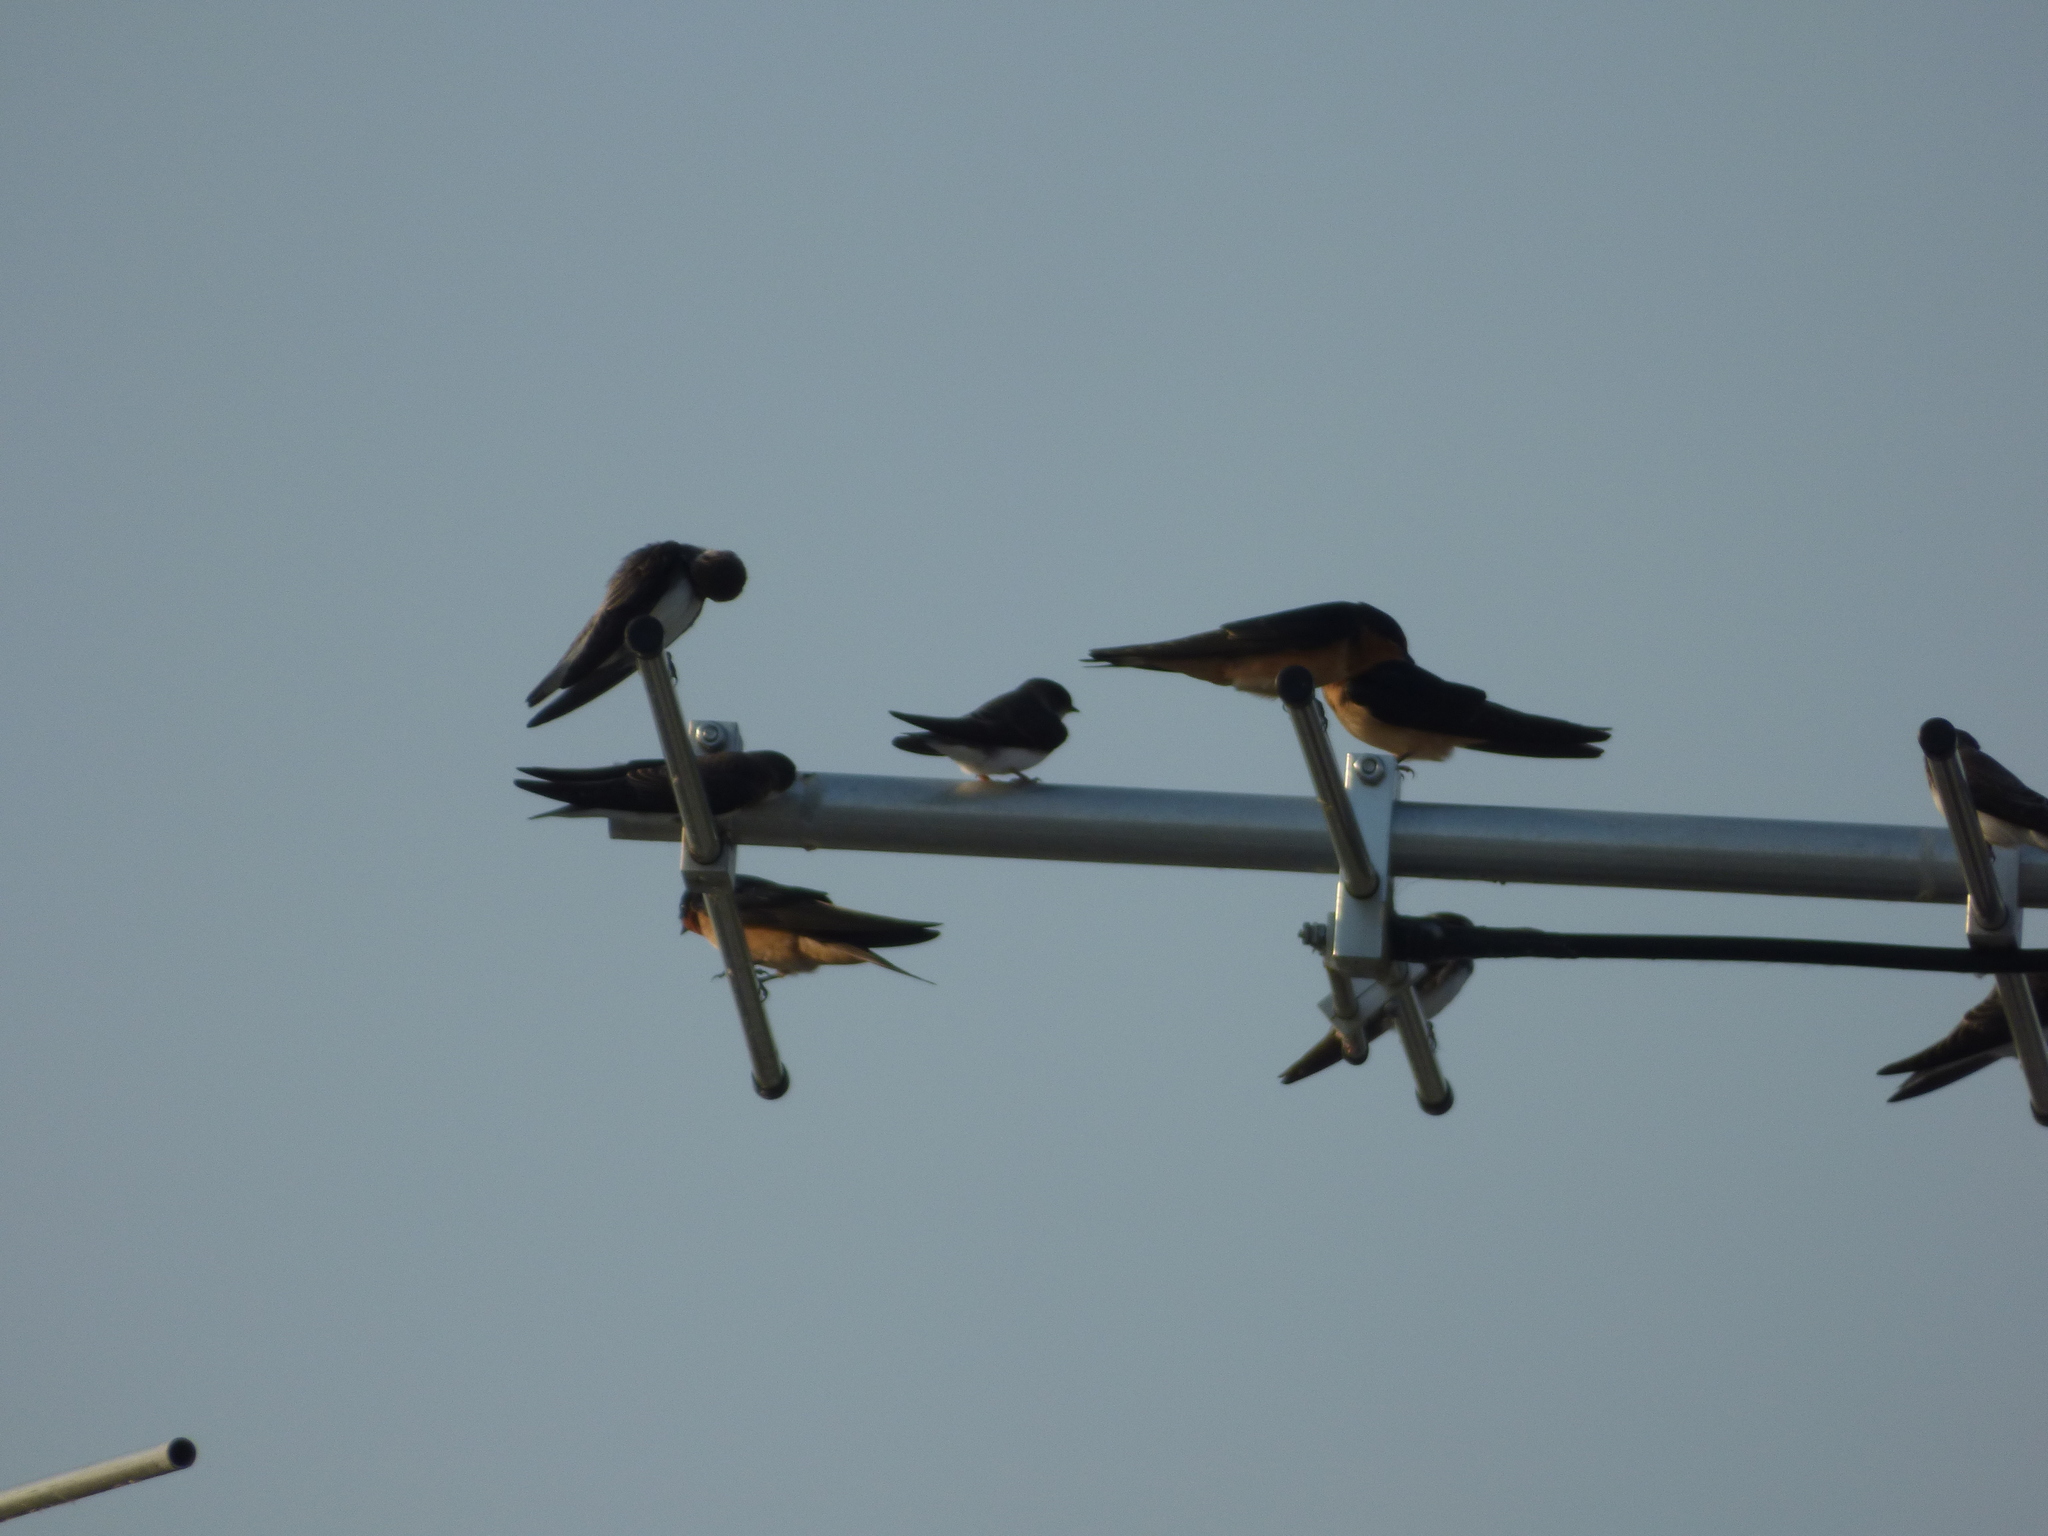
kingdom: Animalia
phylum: Chordata
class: Aves
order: Passeriformes
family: Hirundinidae
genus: Hirundo
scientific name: Hirundo rustica
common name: Barn swallow
